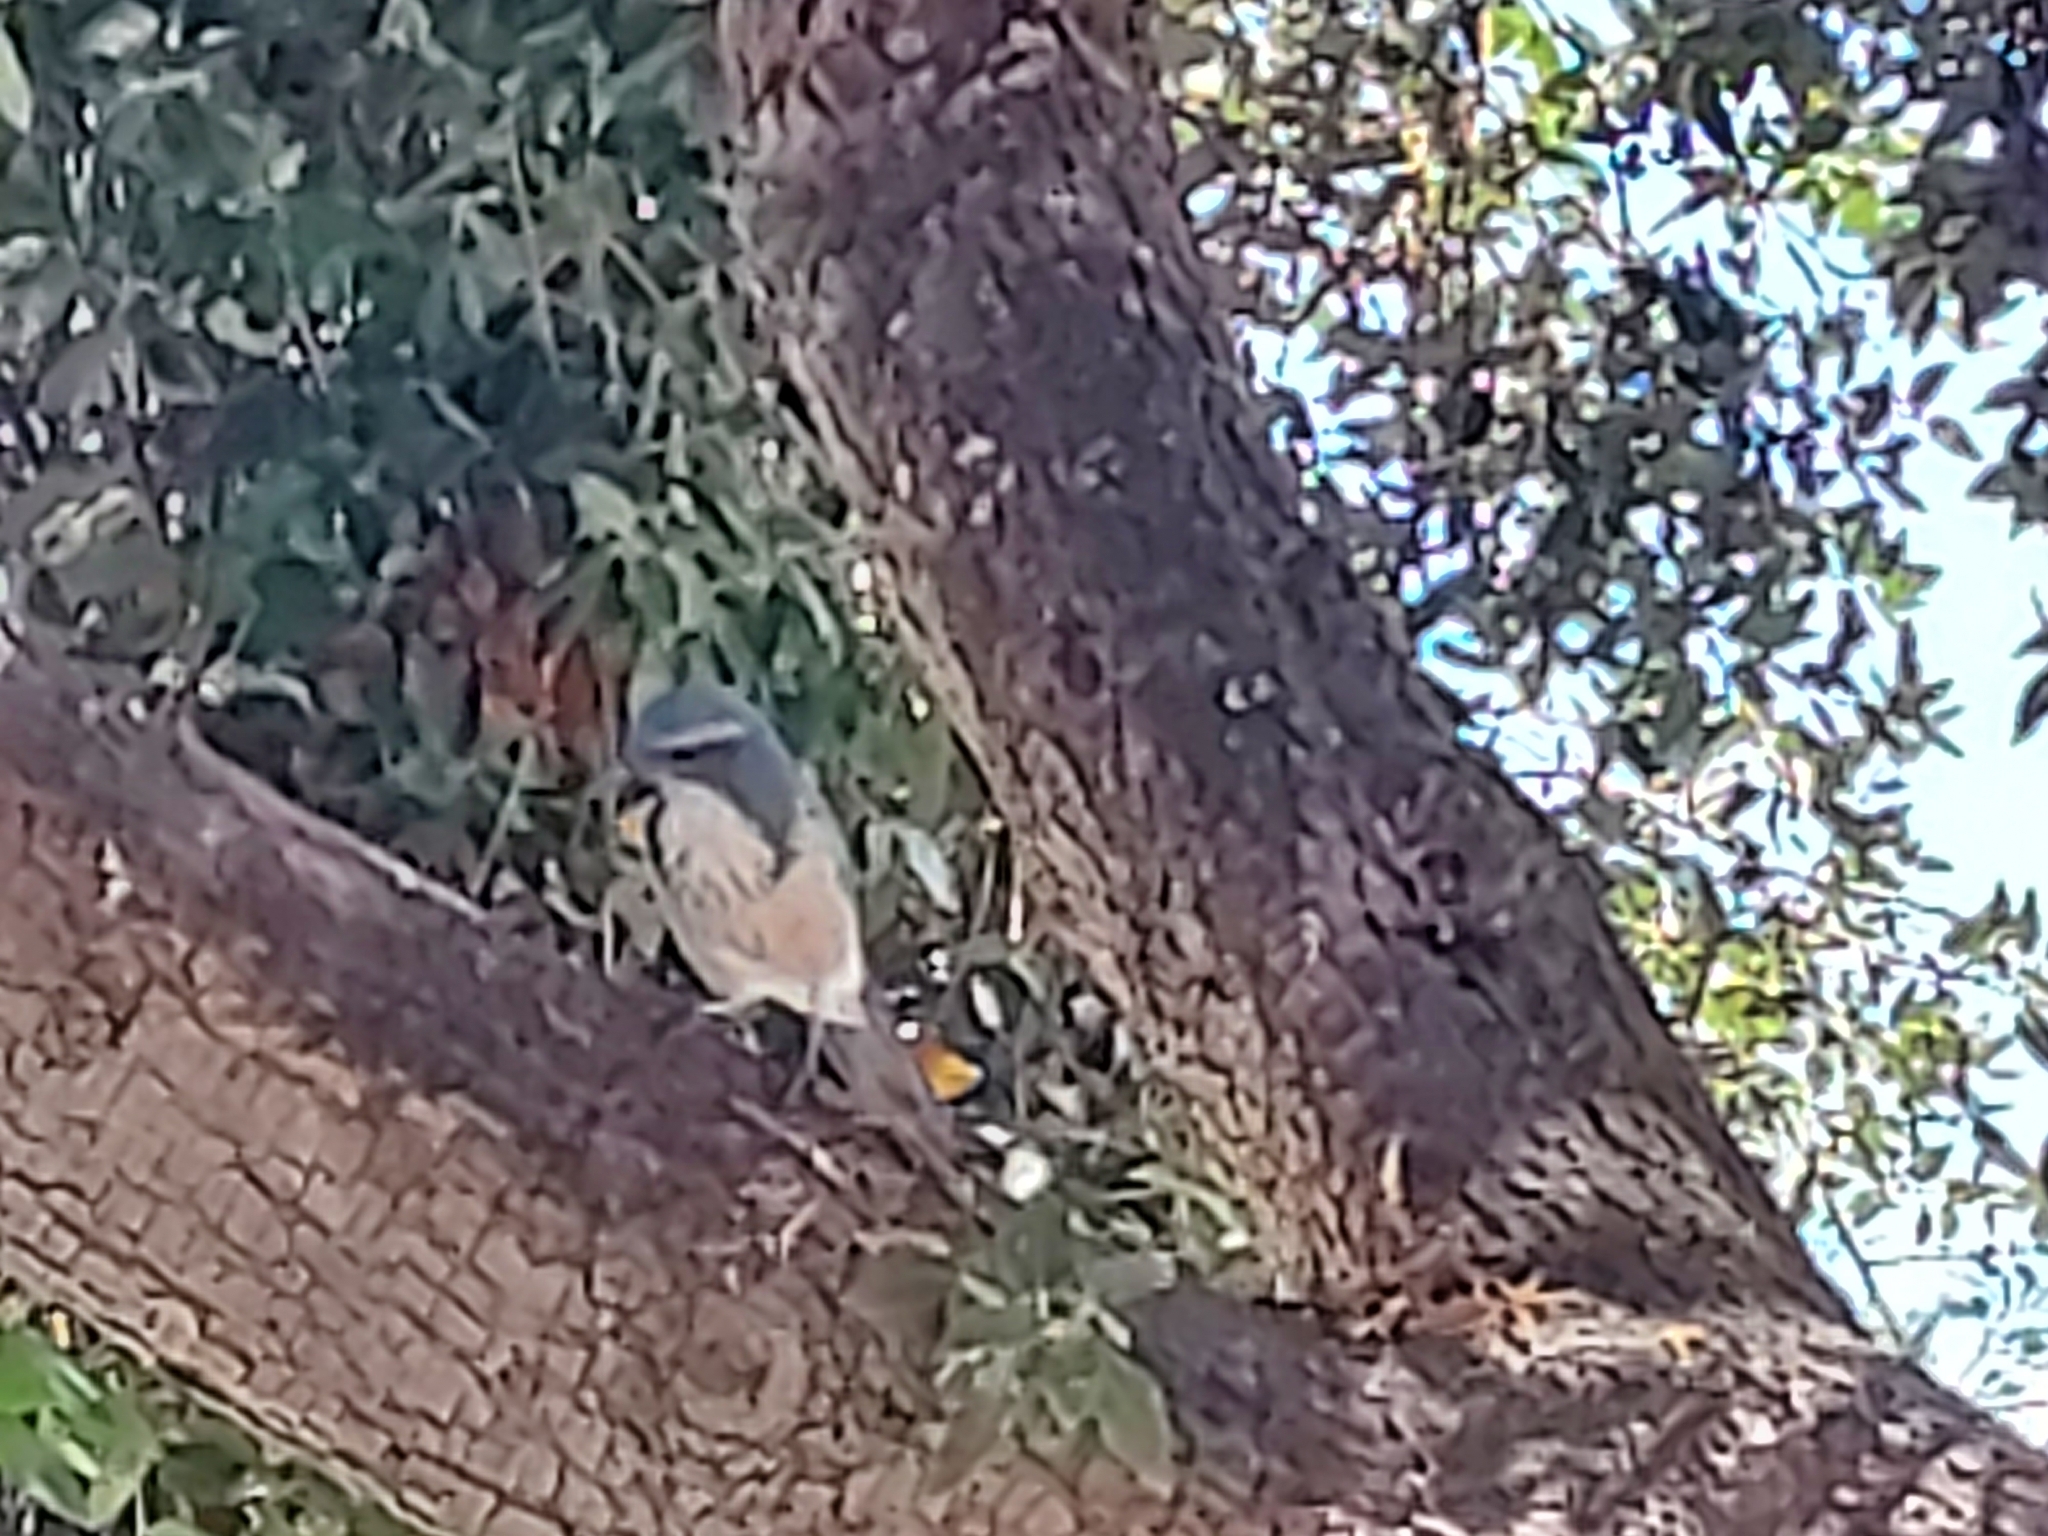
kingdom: Animalia
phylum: Chordata
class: Aves
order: Passeriformes
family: Corvidae
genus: Aphelocoma
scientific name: Aphelocoma californica
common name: California scrub-jay
